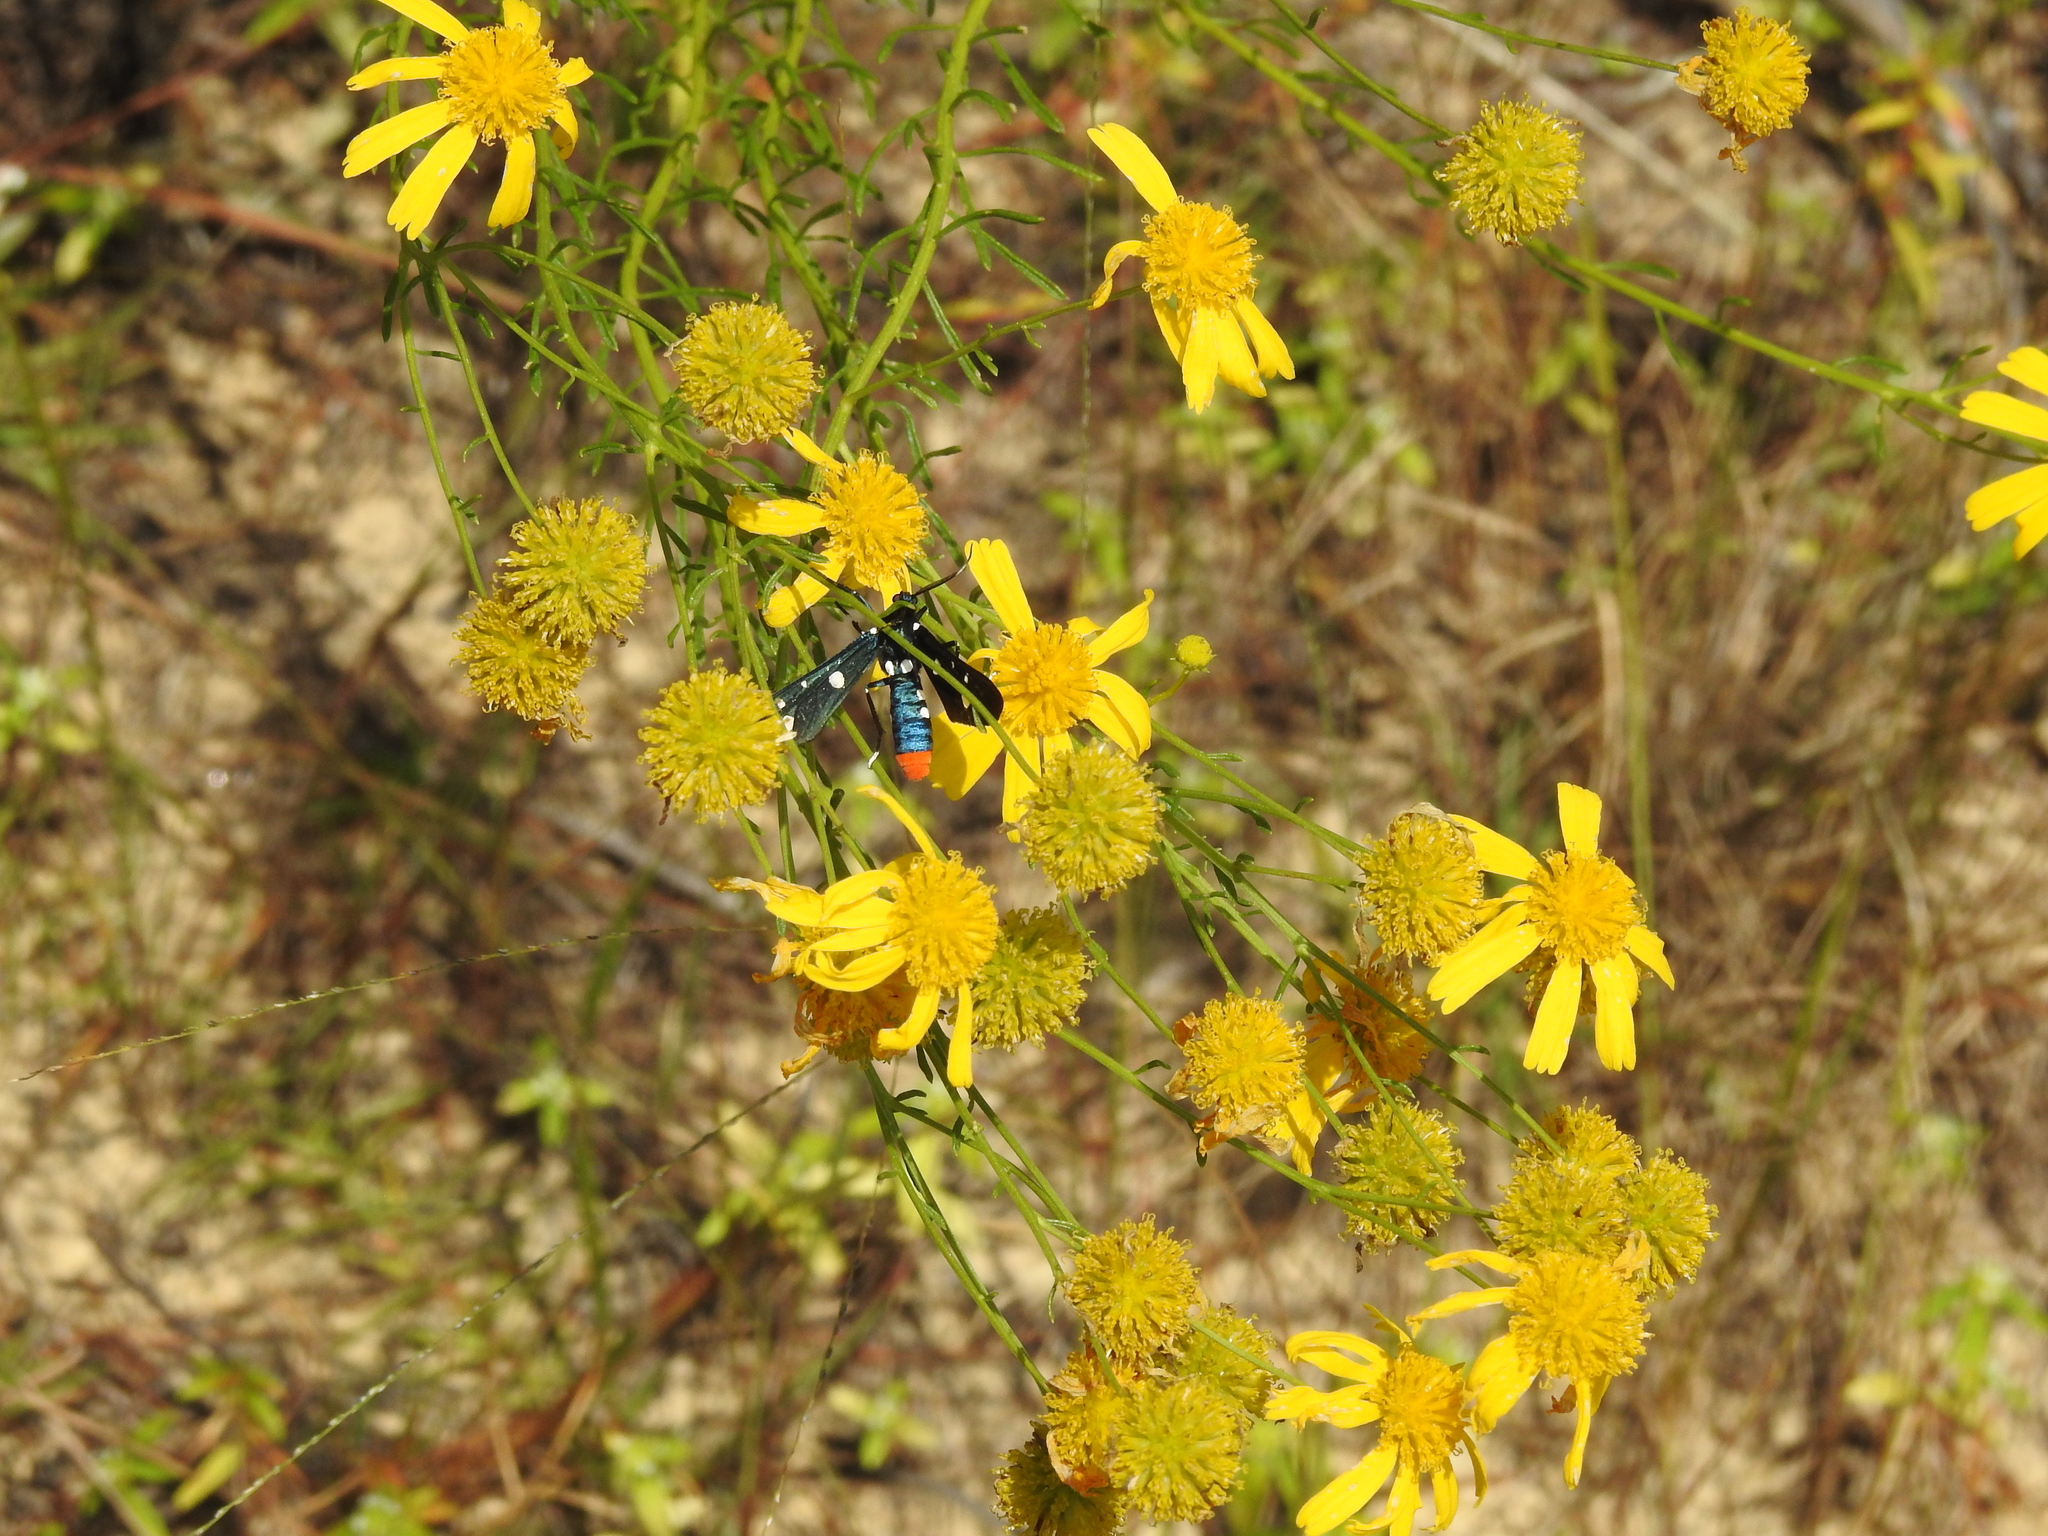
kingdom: Plantae
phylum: Tracheophyta
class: Magnoliopsida
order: Asterales
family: Asteraceae
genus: Balduina
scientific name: Balduina angustifolia
